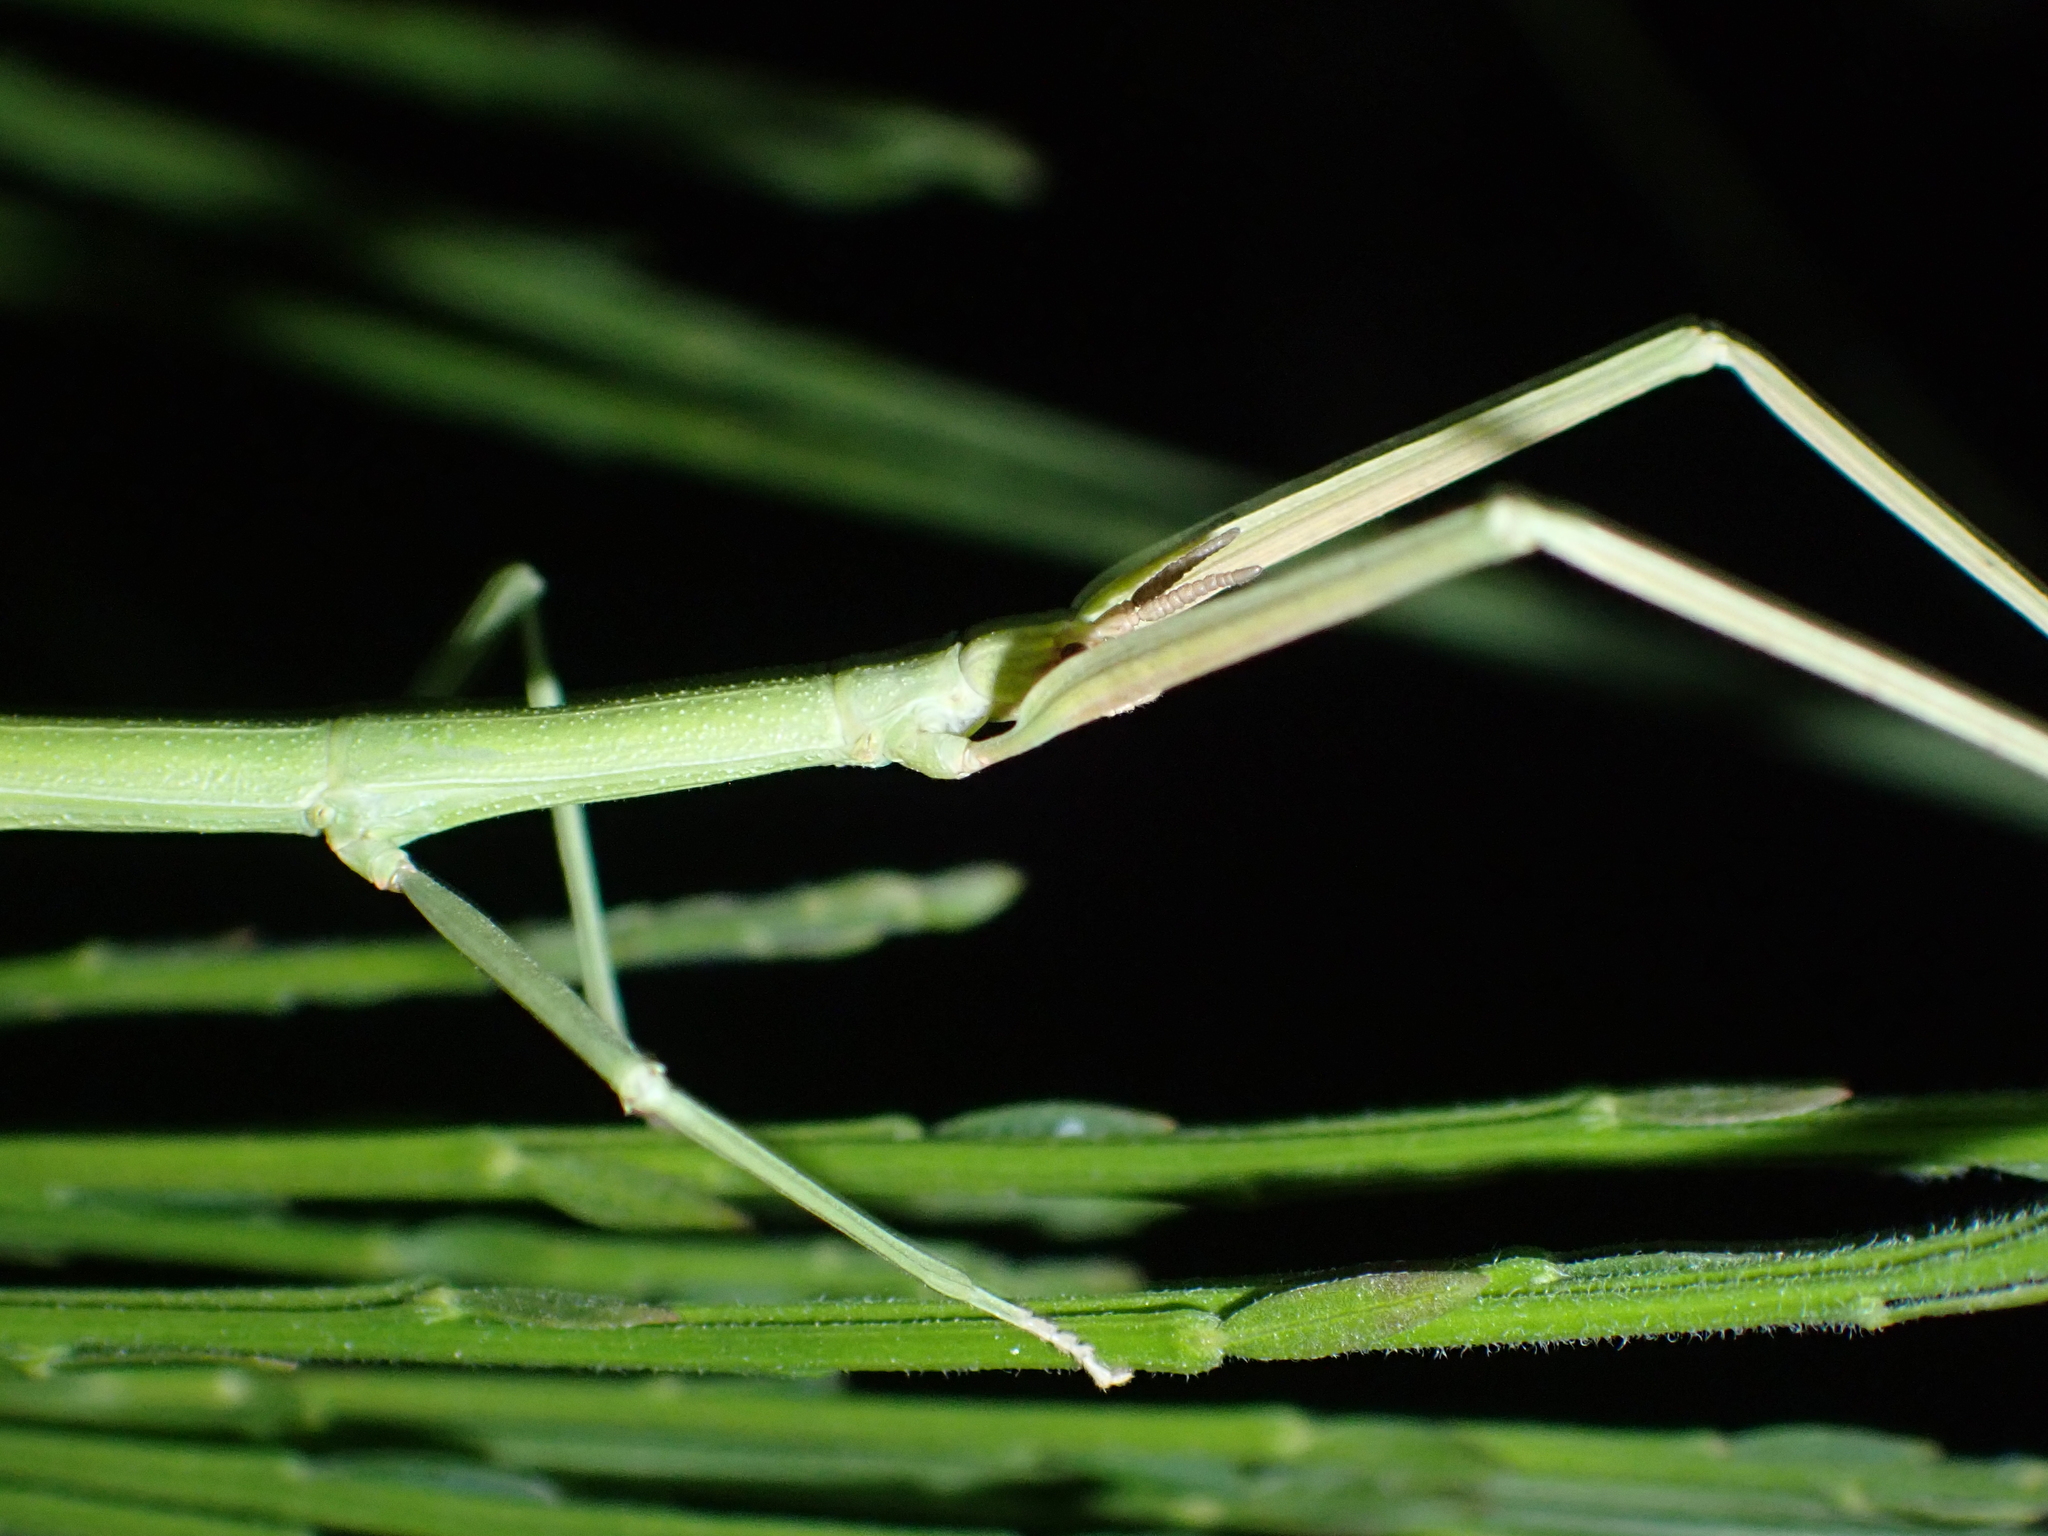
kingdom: Animalia
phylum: Arthropoda
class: Insecta
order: Phasmida
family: Bacillidae
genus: Clonopsis
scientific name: Clonopsis gallica
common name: French stick insect
